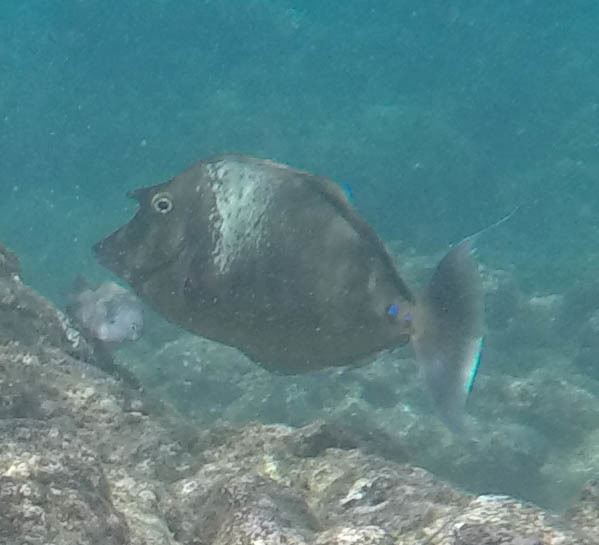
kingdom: Animalia
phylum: Chordata
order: Perciformes
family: Acanthuridae
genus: Naso
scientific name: Naso unicornis
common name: Bluespine unicornfish
